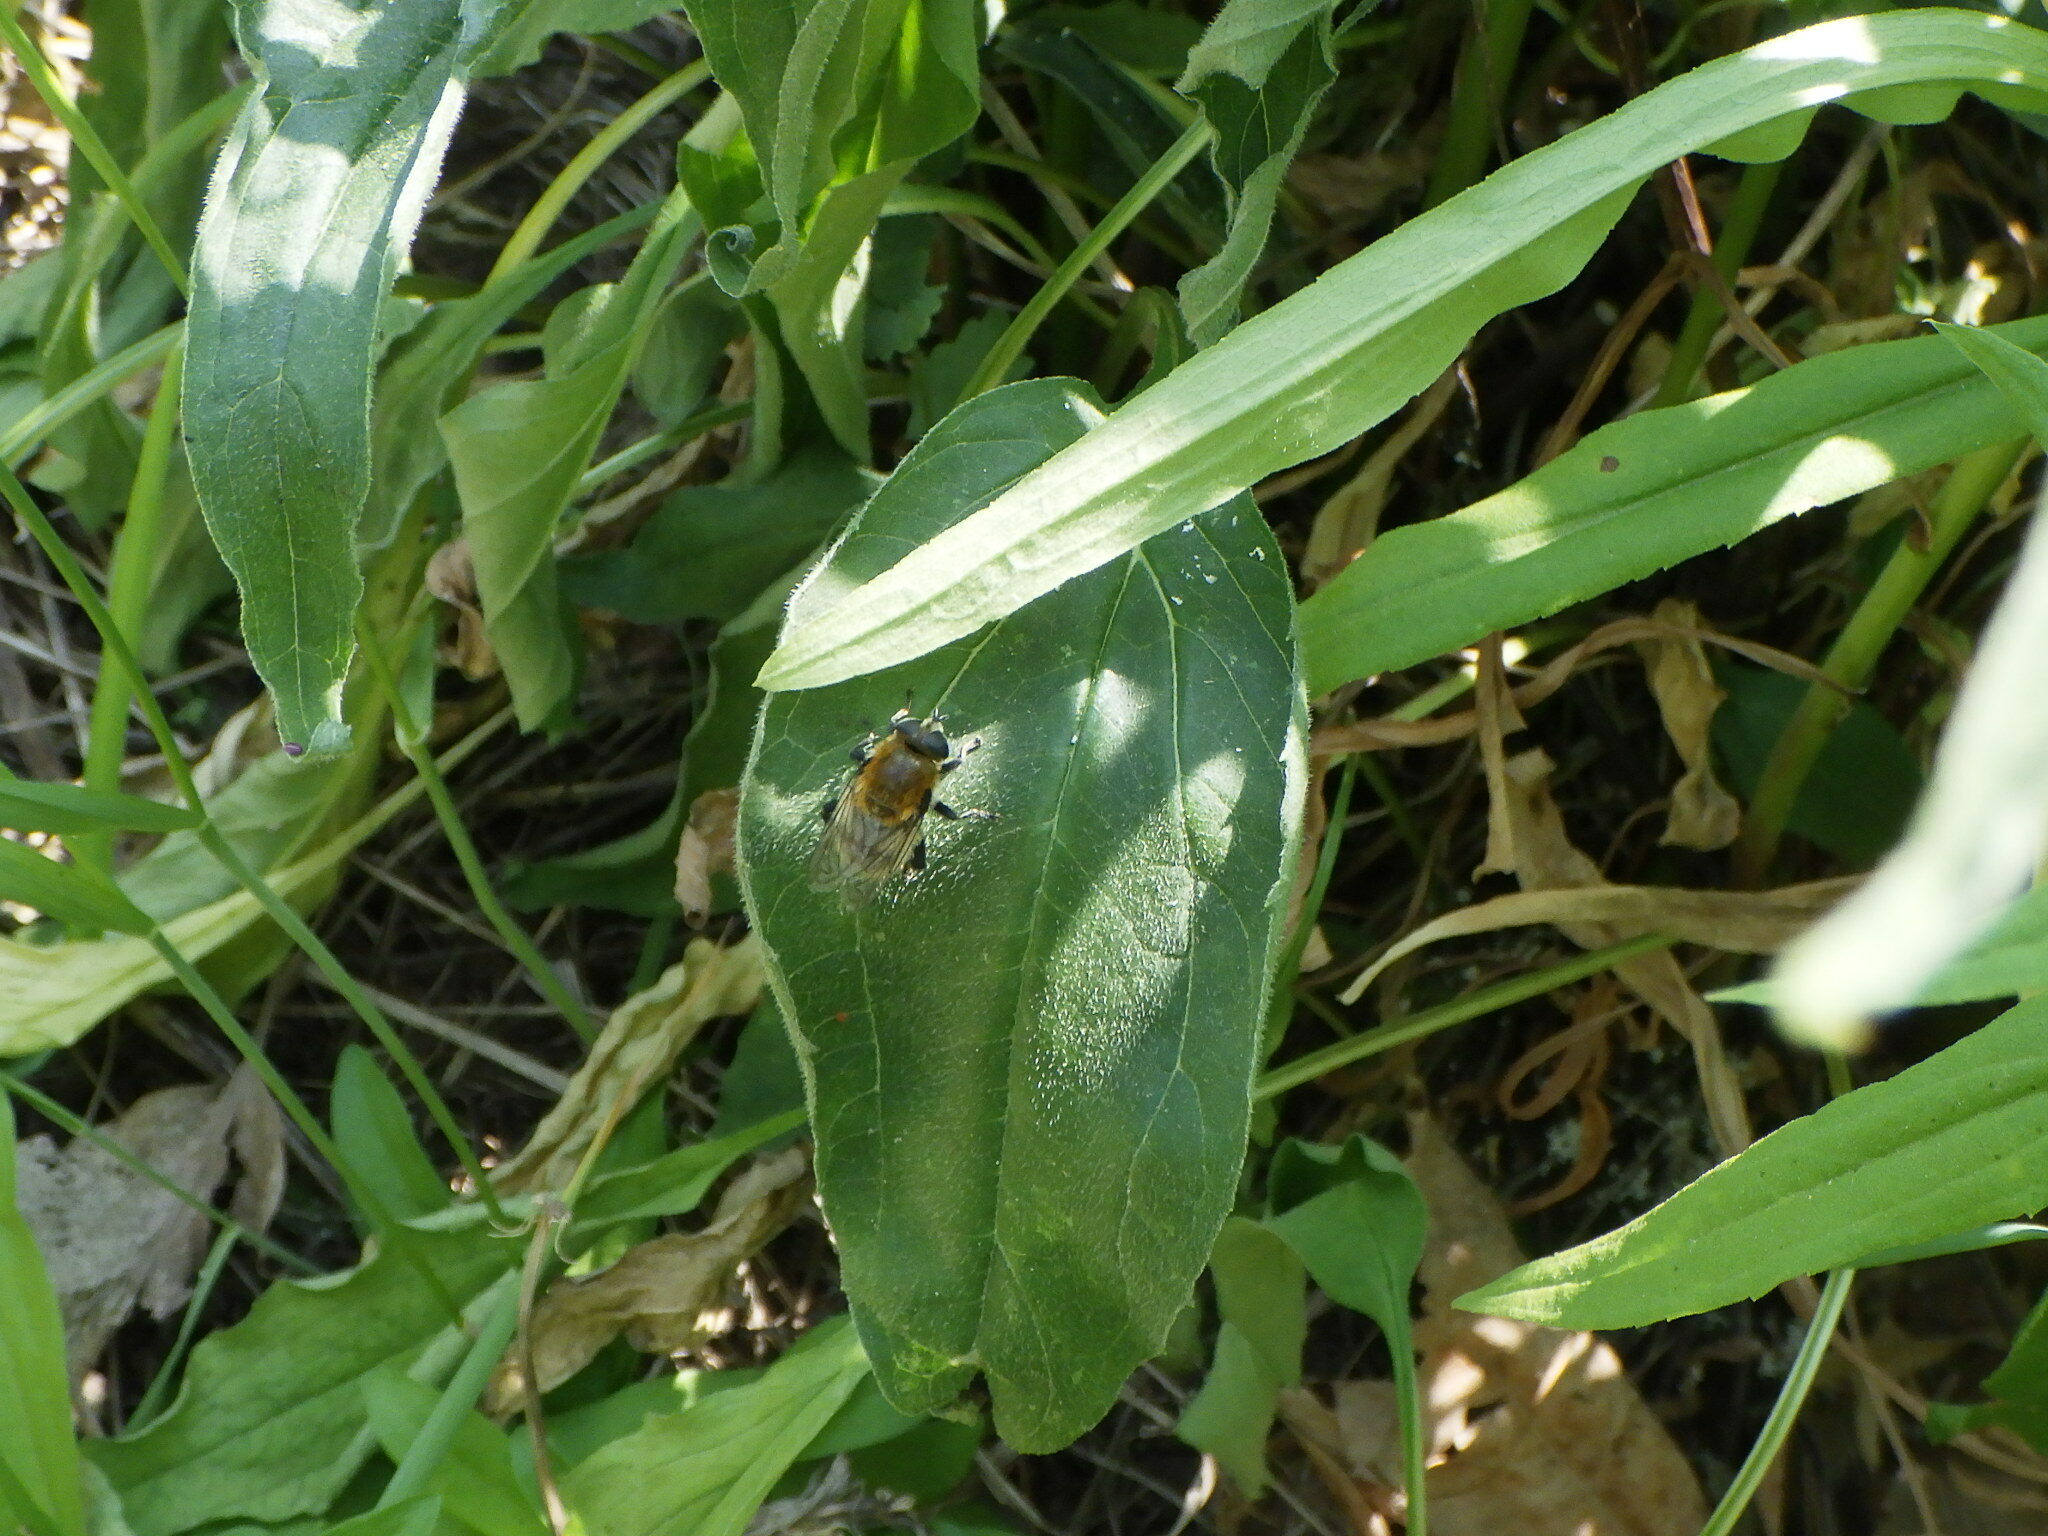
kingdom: Animalia
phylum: Arthropoda
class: Insecta
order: Diptera
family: Syrphidae
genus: Merodon
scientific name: Merodon equestris
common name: Greater bulb-fly
